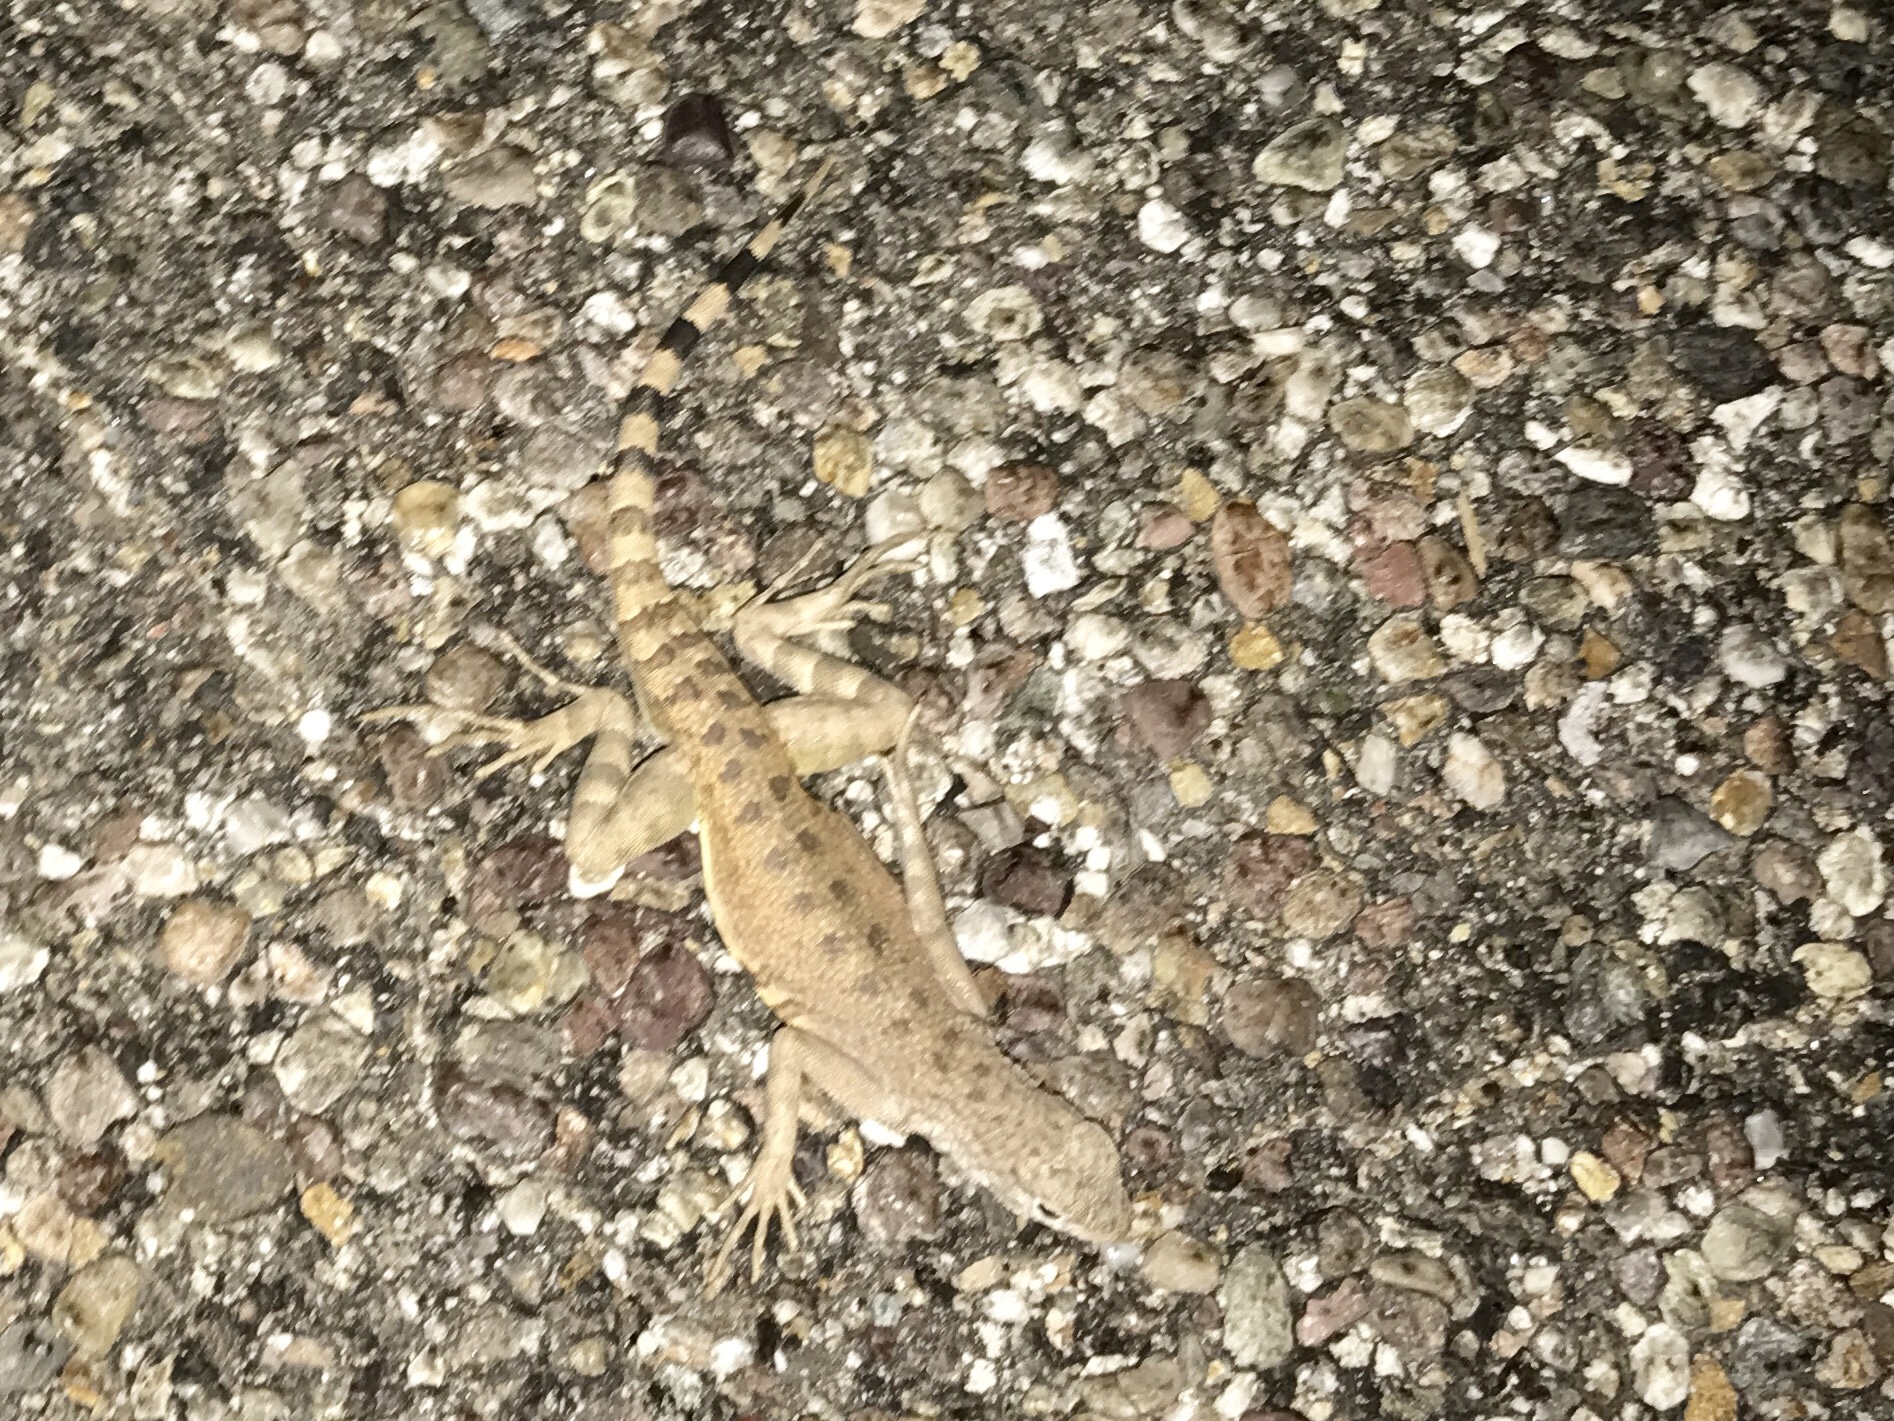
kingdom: Animalia
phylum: Chordata
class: Squamata
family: Phrynosomatidae
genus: Callisaurus
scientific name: Callisaurus draconoides
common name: Zebra-tailed lizard
